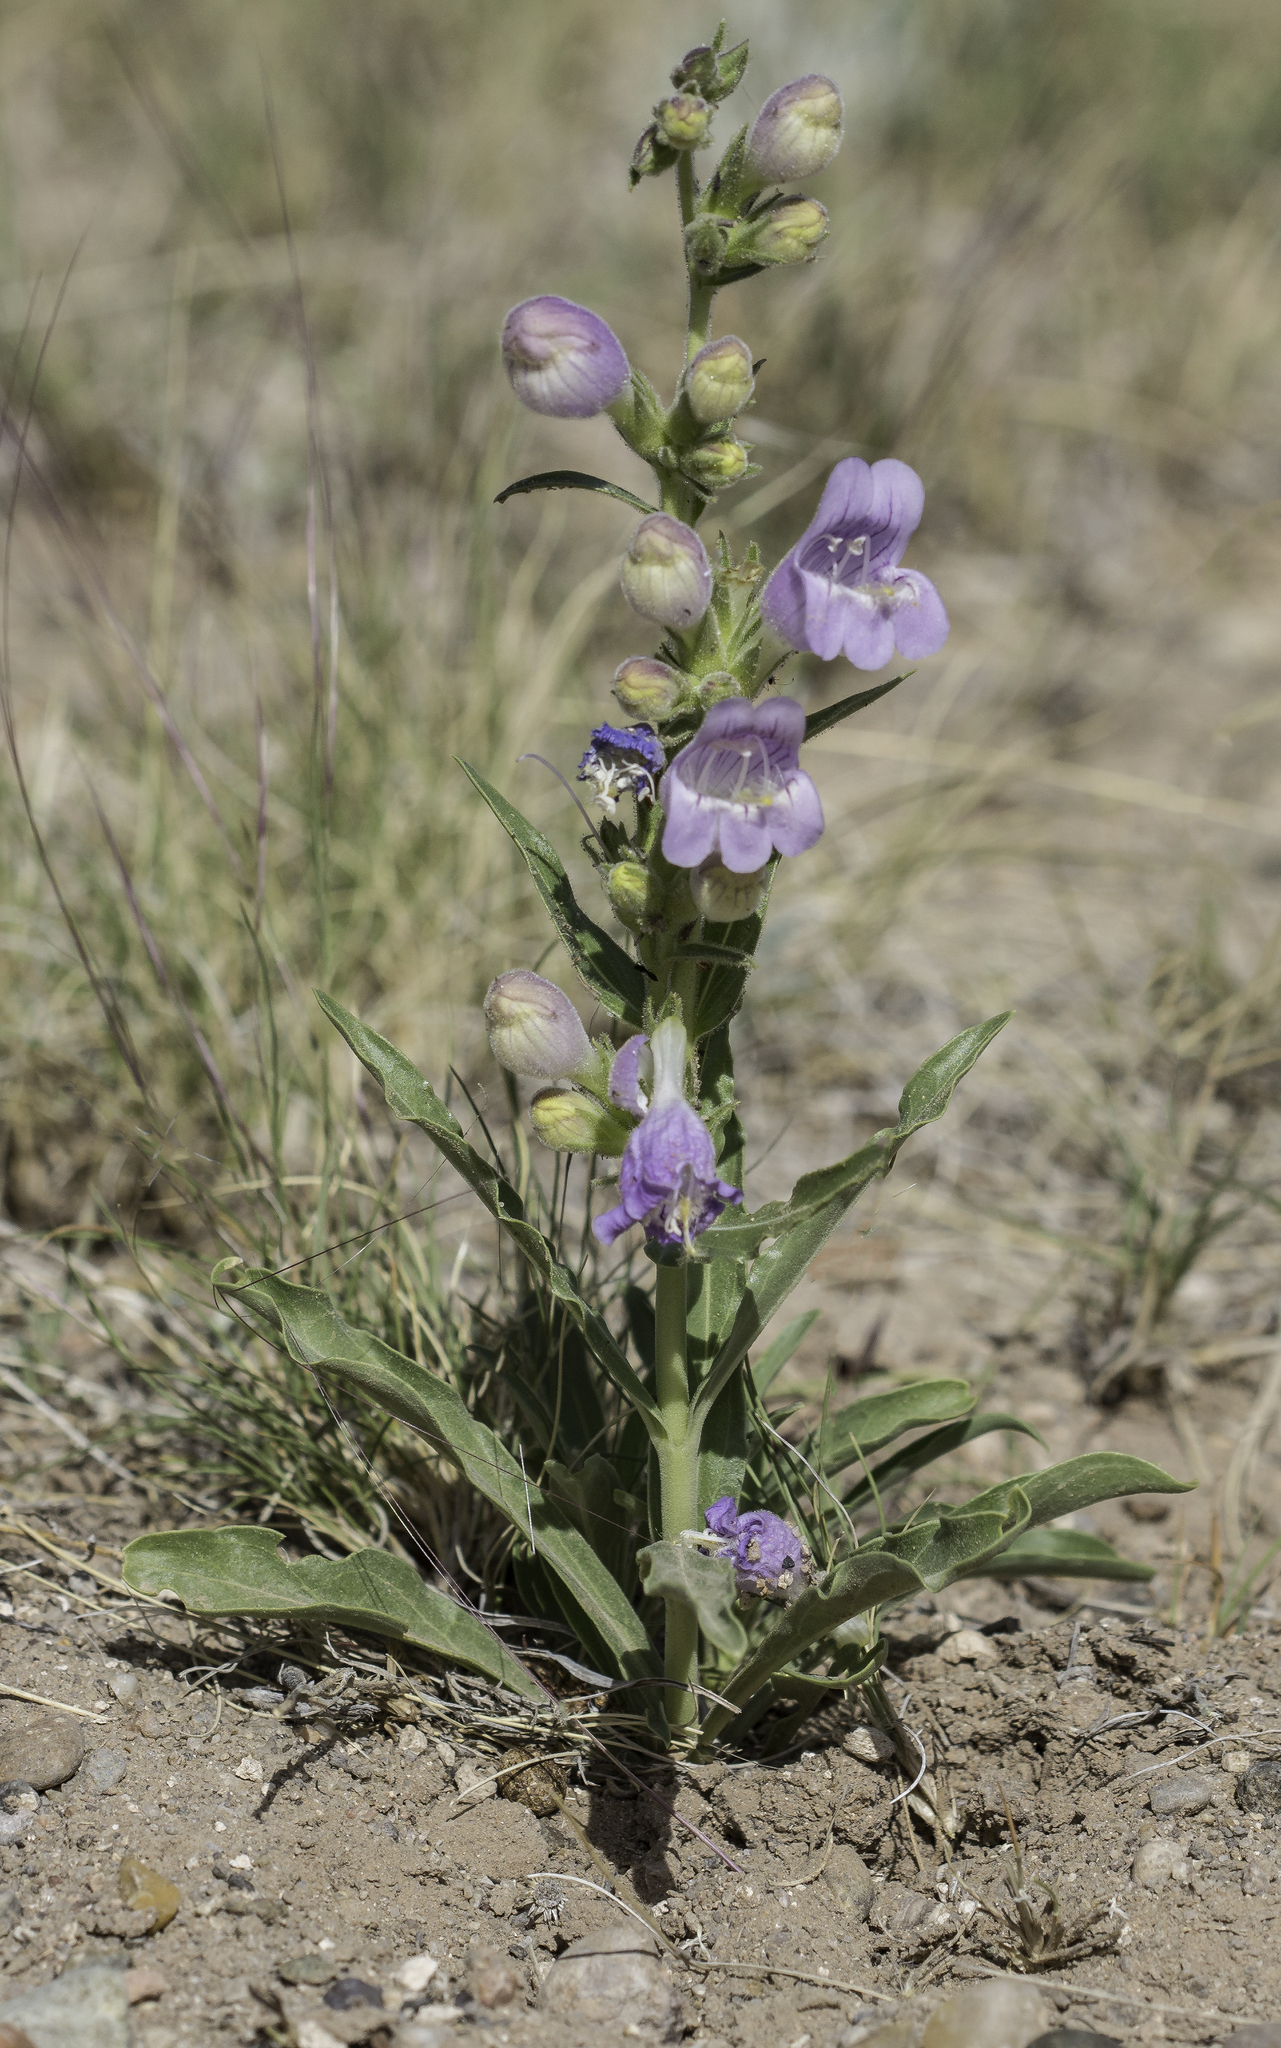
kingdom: Plantae
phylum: Tracheophyta
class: Magnoliopsida
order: Lamiales
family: Plantaginaceae
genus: Penstemon
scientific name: Penstemon jamesii
